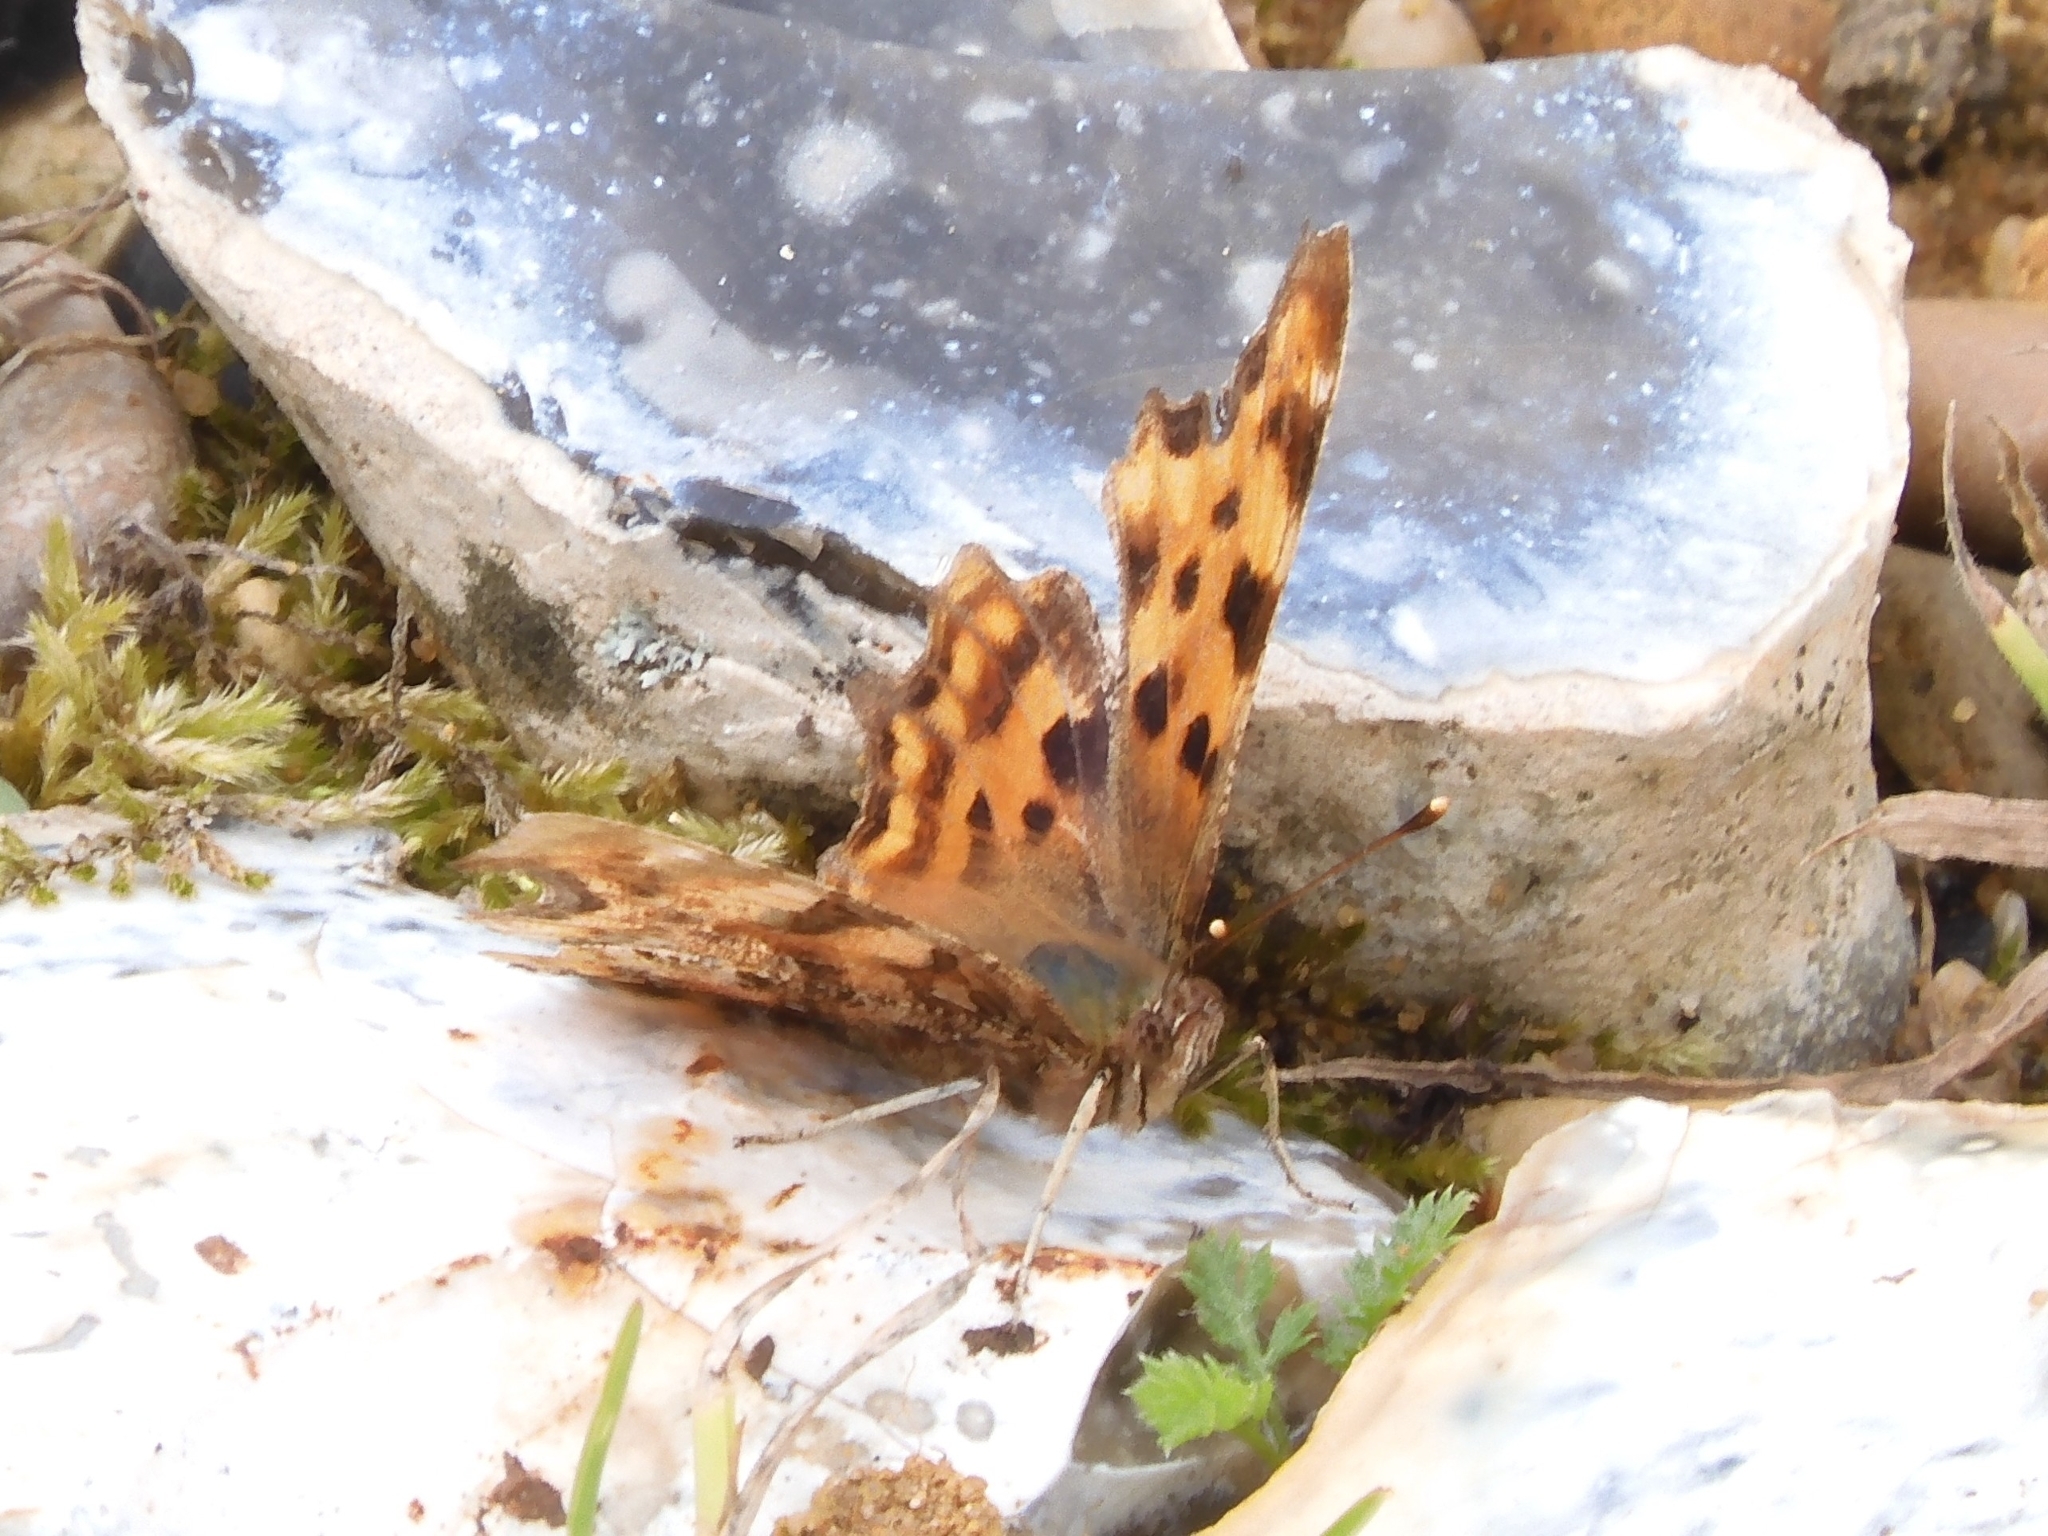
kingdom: Animalia
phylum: Arthropoda
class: Insecta
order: Lepidoptera
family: Nymphalidae
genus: Polygonia
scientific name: Polygonia c-album
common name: Comma
